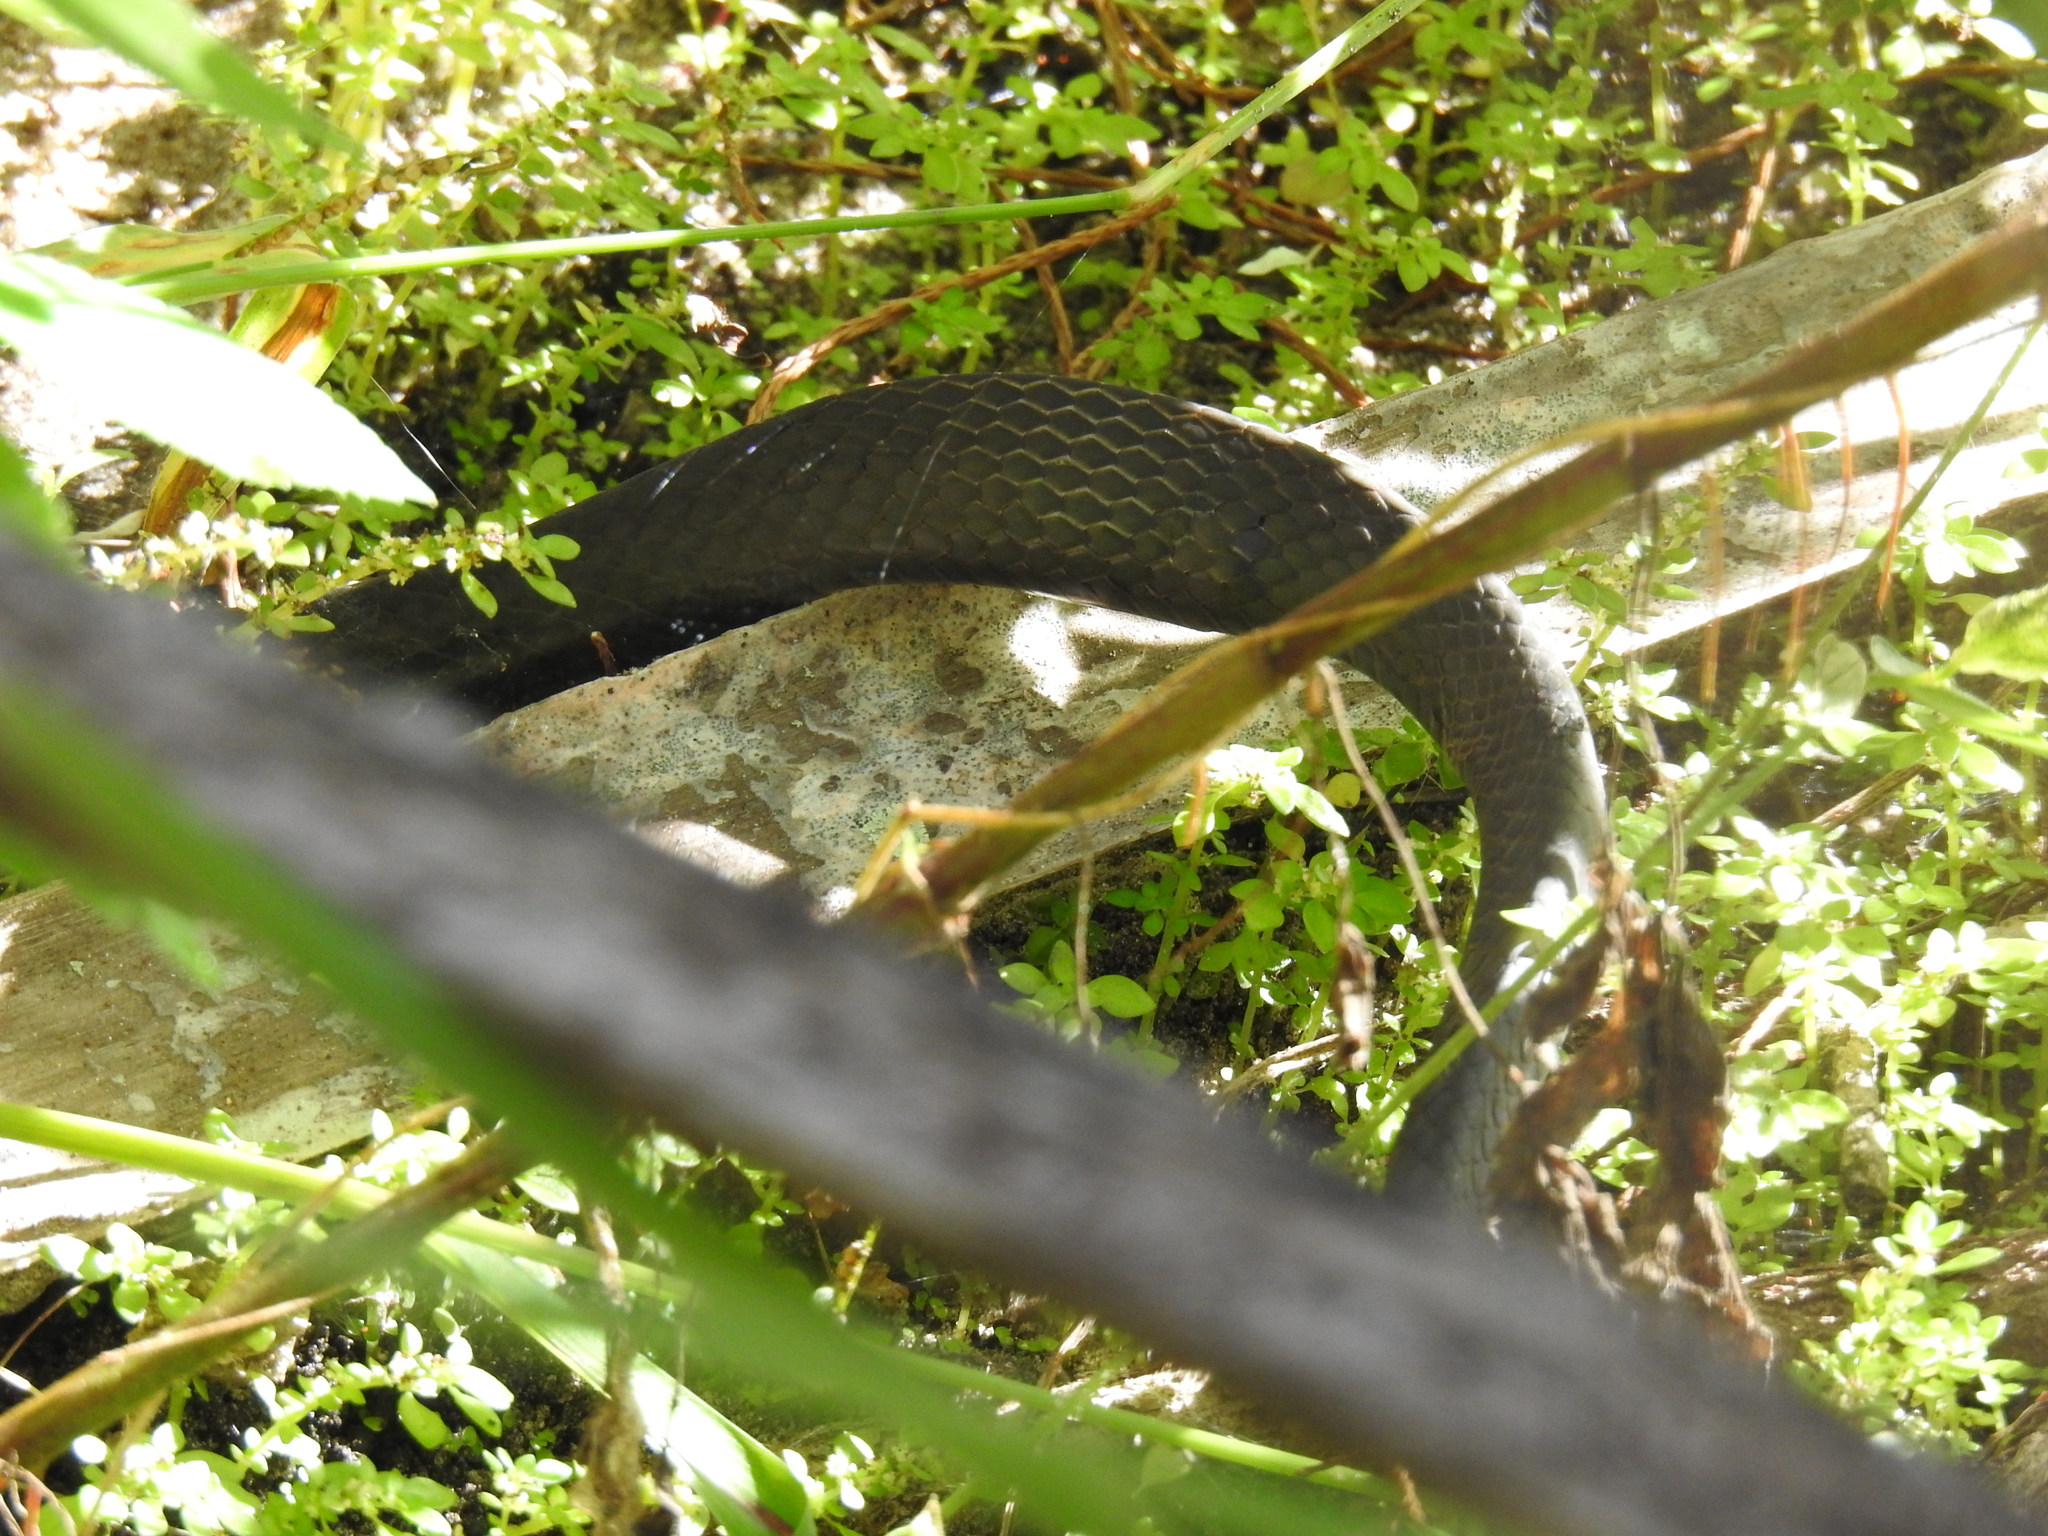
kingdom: Animalia
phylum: Chordata
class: Squamata
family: Colubridae
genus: Coluber
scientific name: Coluber constrictor
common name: Eastern racer
